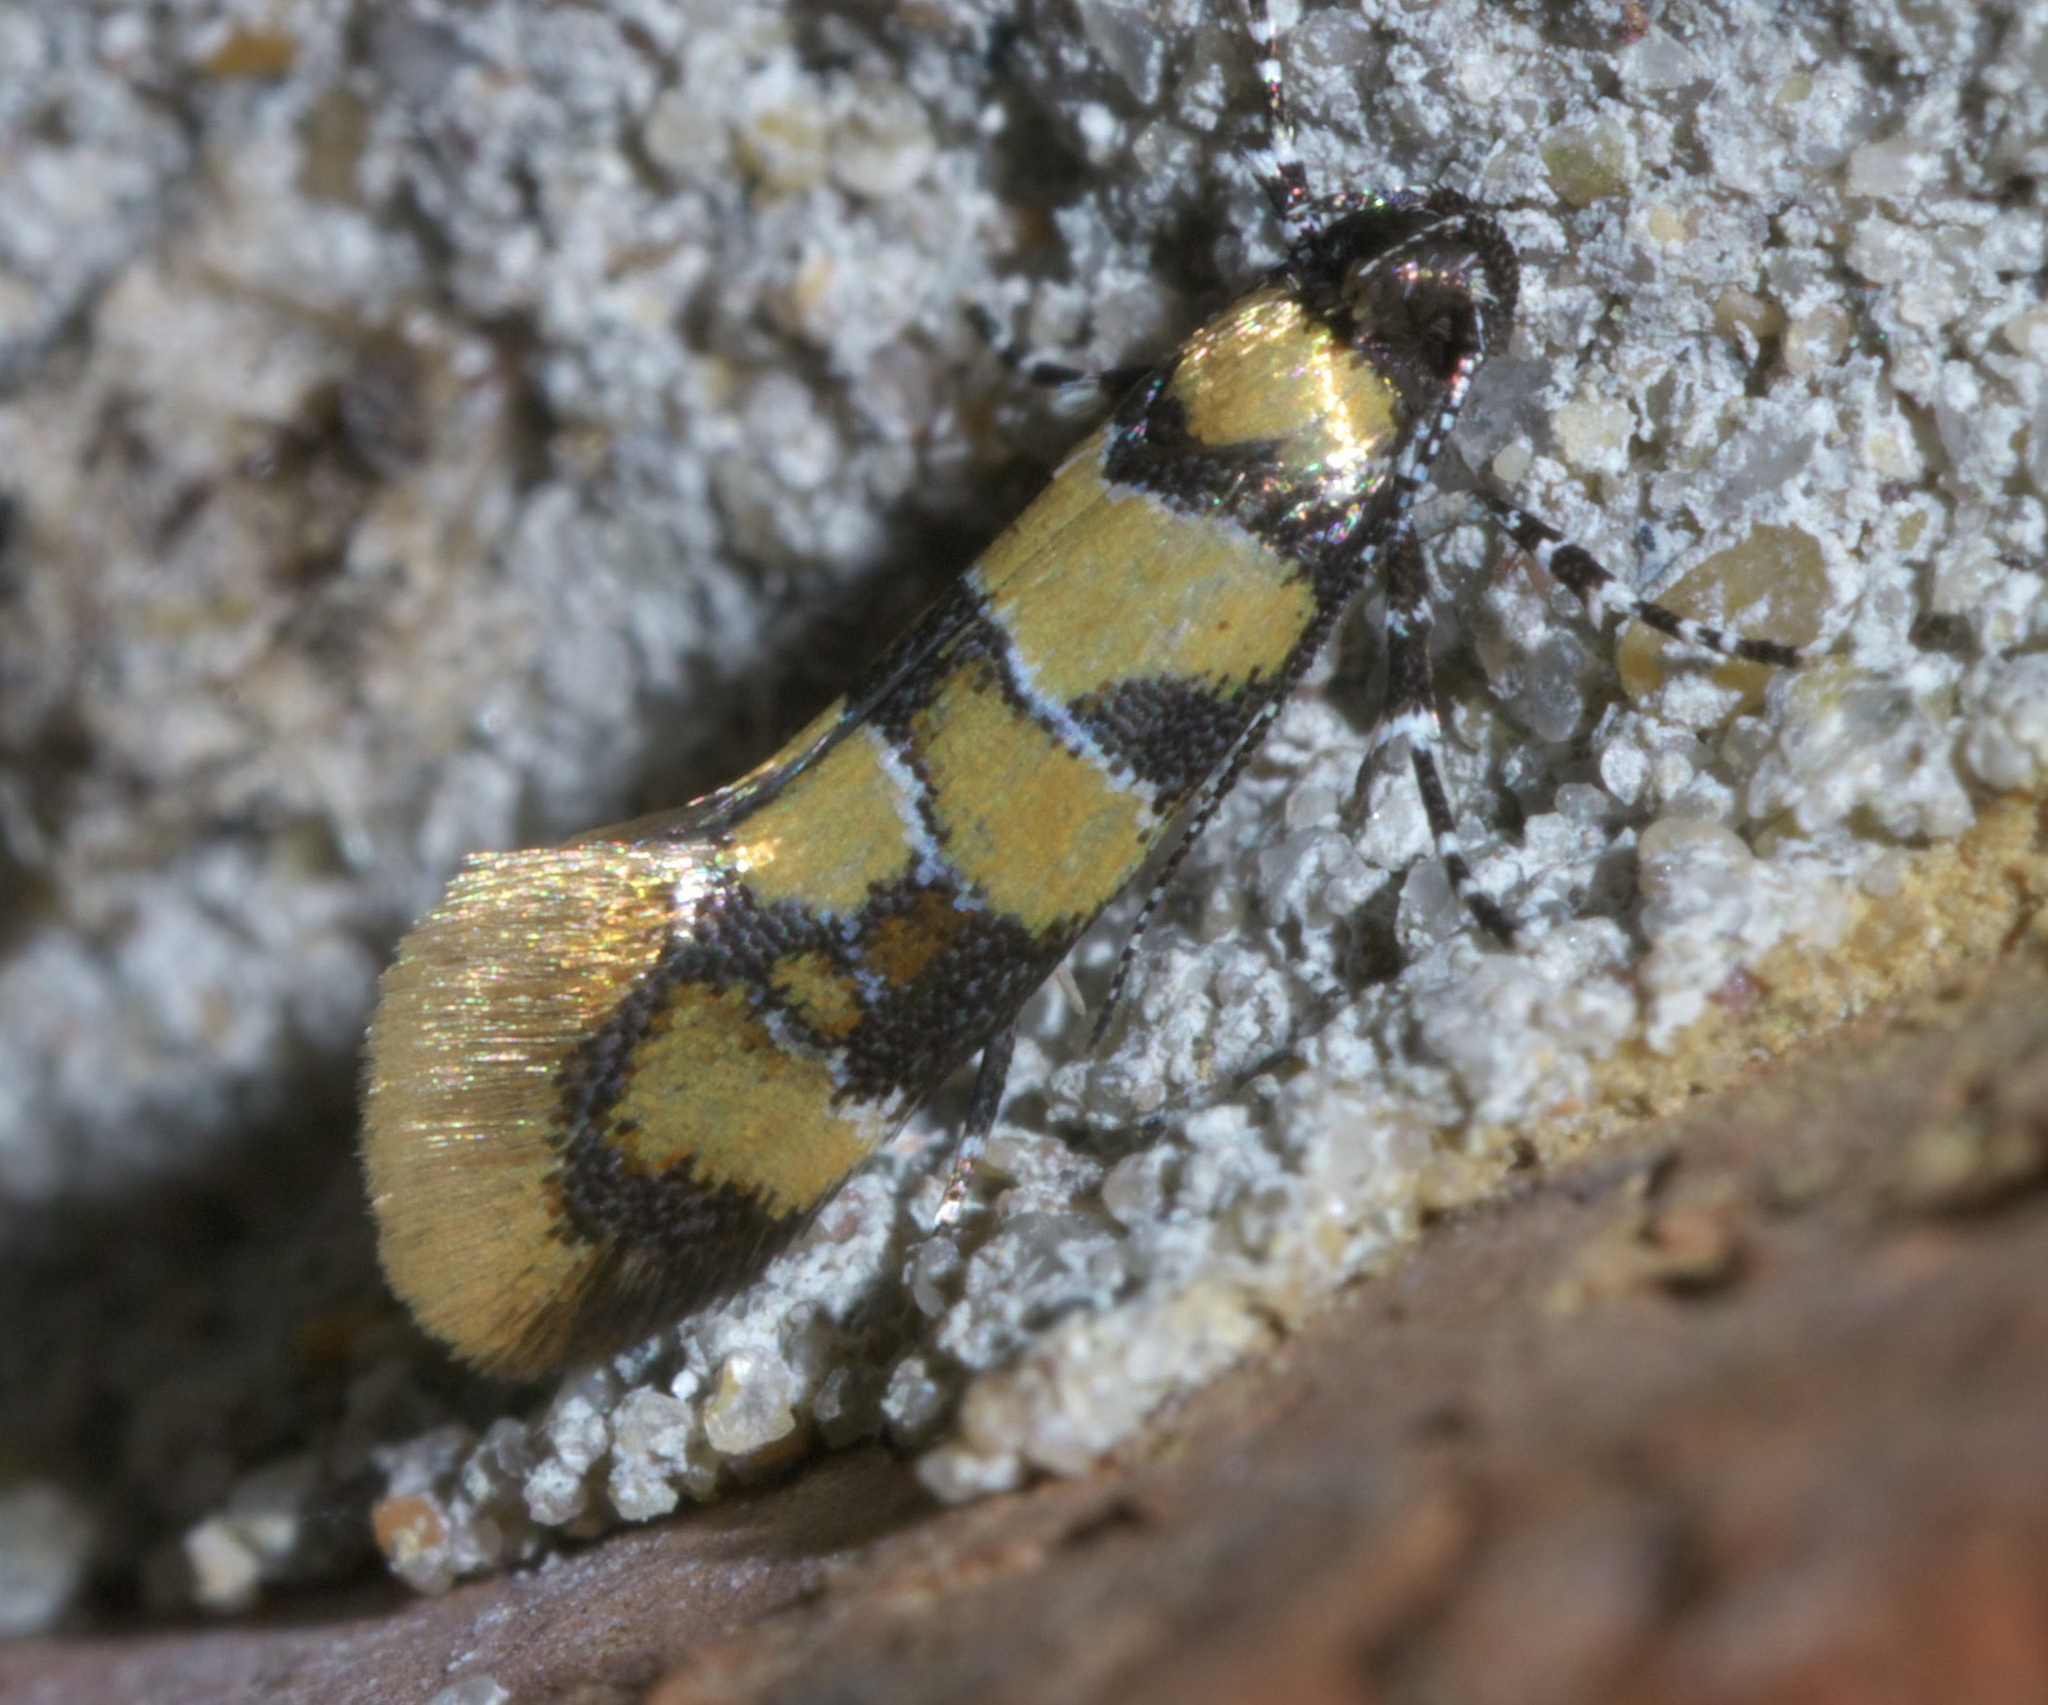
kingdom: Animalia
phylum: Arthropoda
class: Insecta
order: Lepidoptera
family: Oecophoridae
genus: Decantha
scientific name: Decantha borkhausenii
